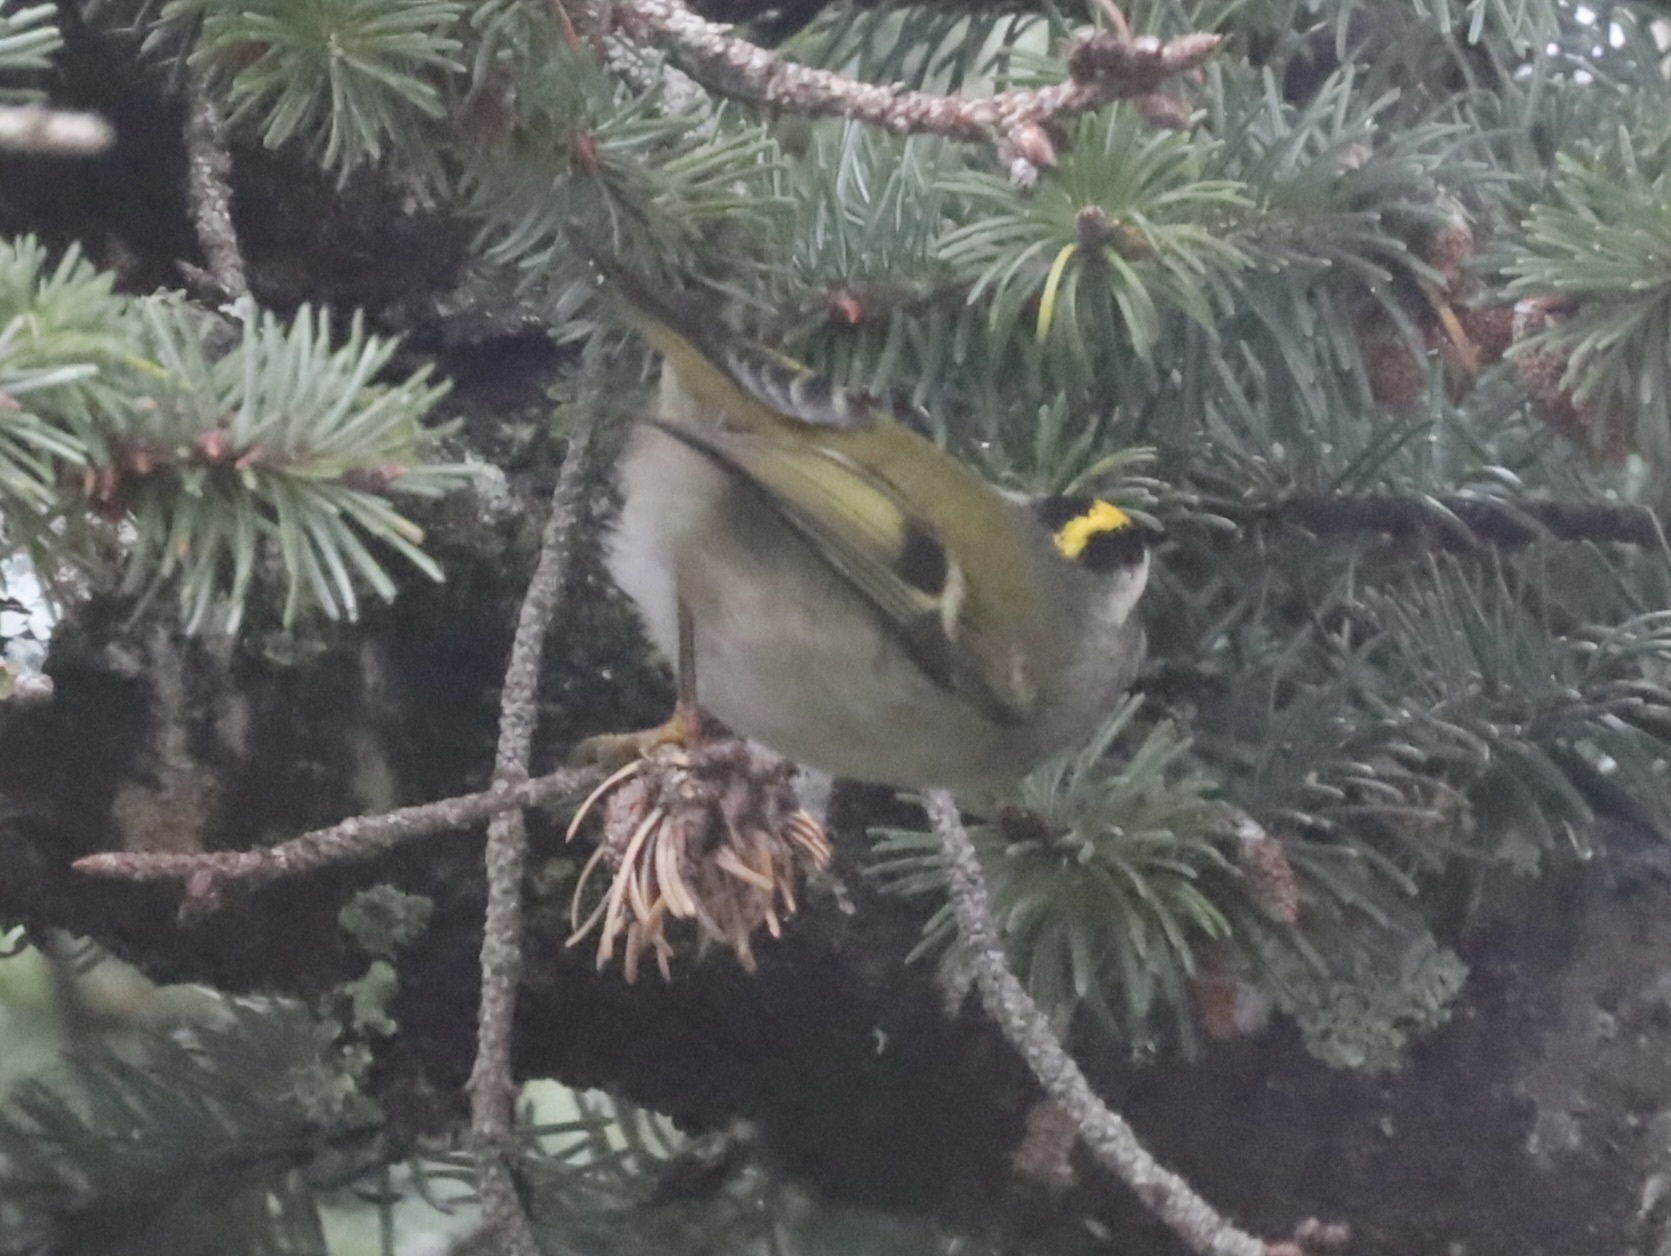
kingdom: Animalia
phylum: Chordata
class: Aves
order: Passeriformes
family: Regulidae
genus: Regulus
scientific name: Regulus satrapa
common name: Golden-crowned kinglet
